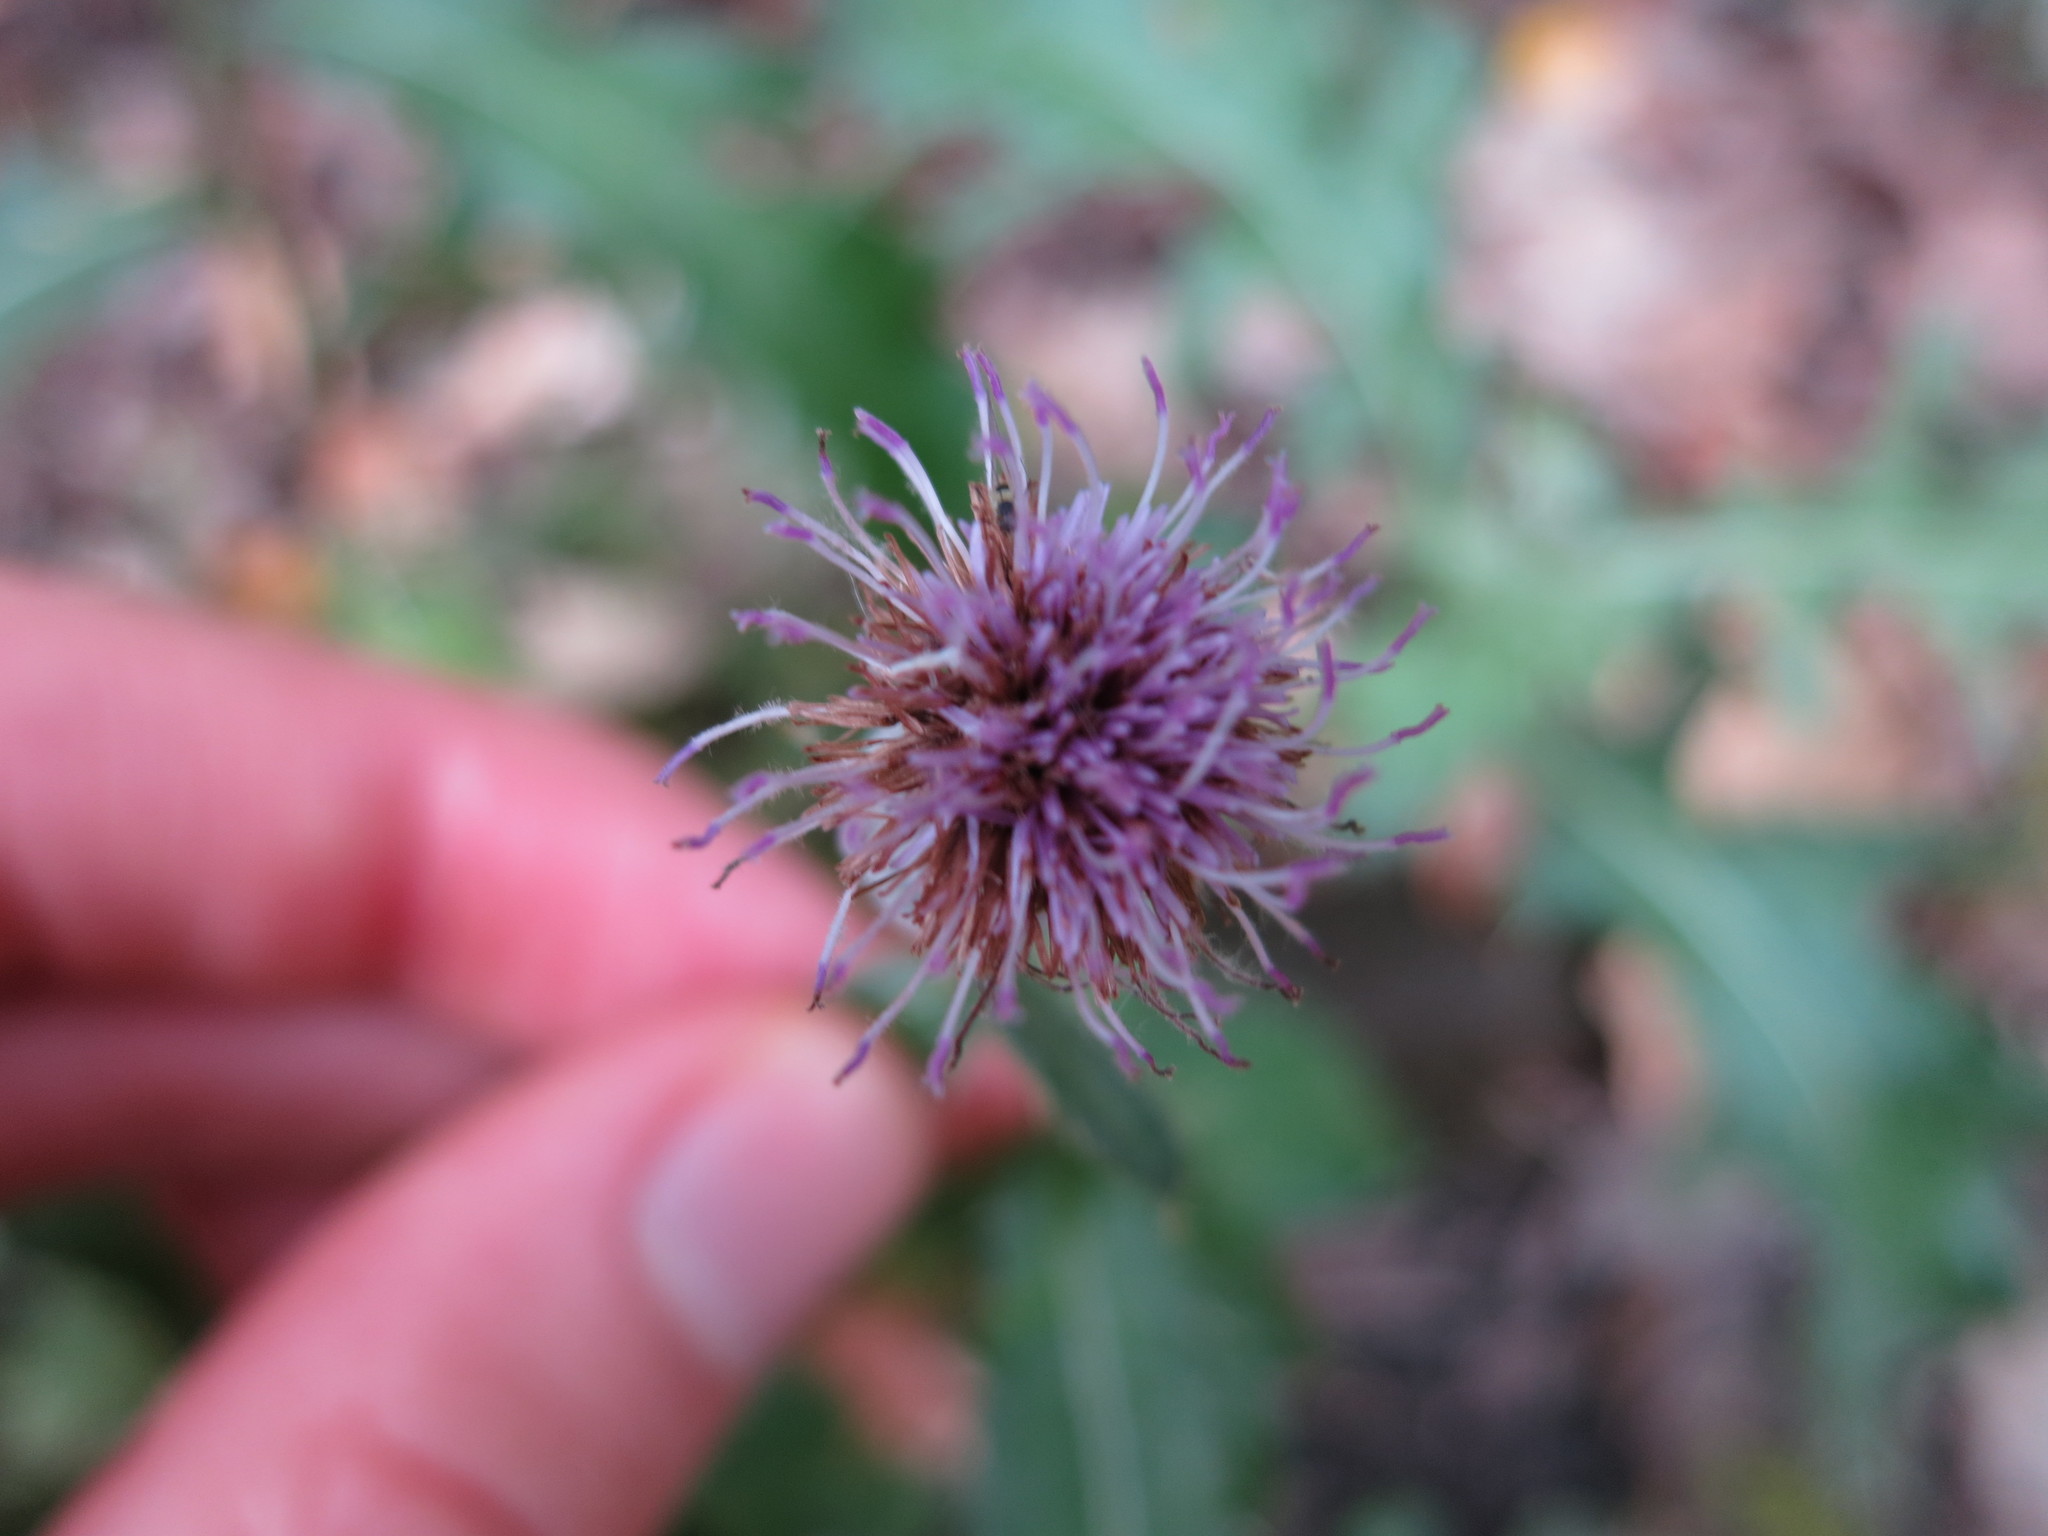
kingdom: Plantae
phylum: Tracheophyta
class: Magnoliopsida
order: Asterales
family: Asteraceae
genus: Cirsium
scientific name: Cirsium arvense
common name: Creeping thistle
